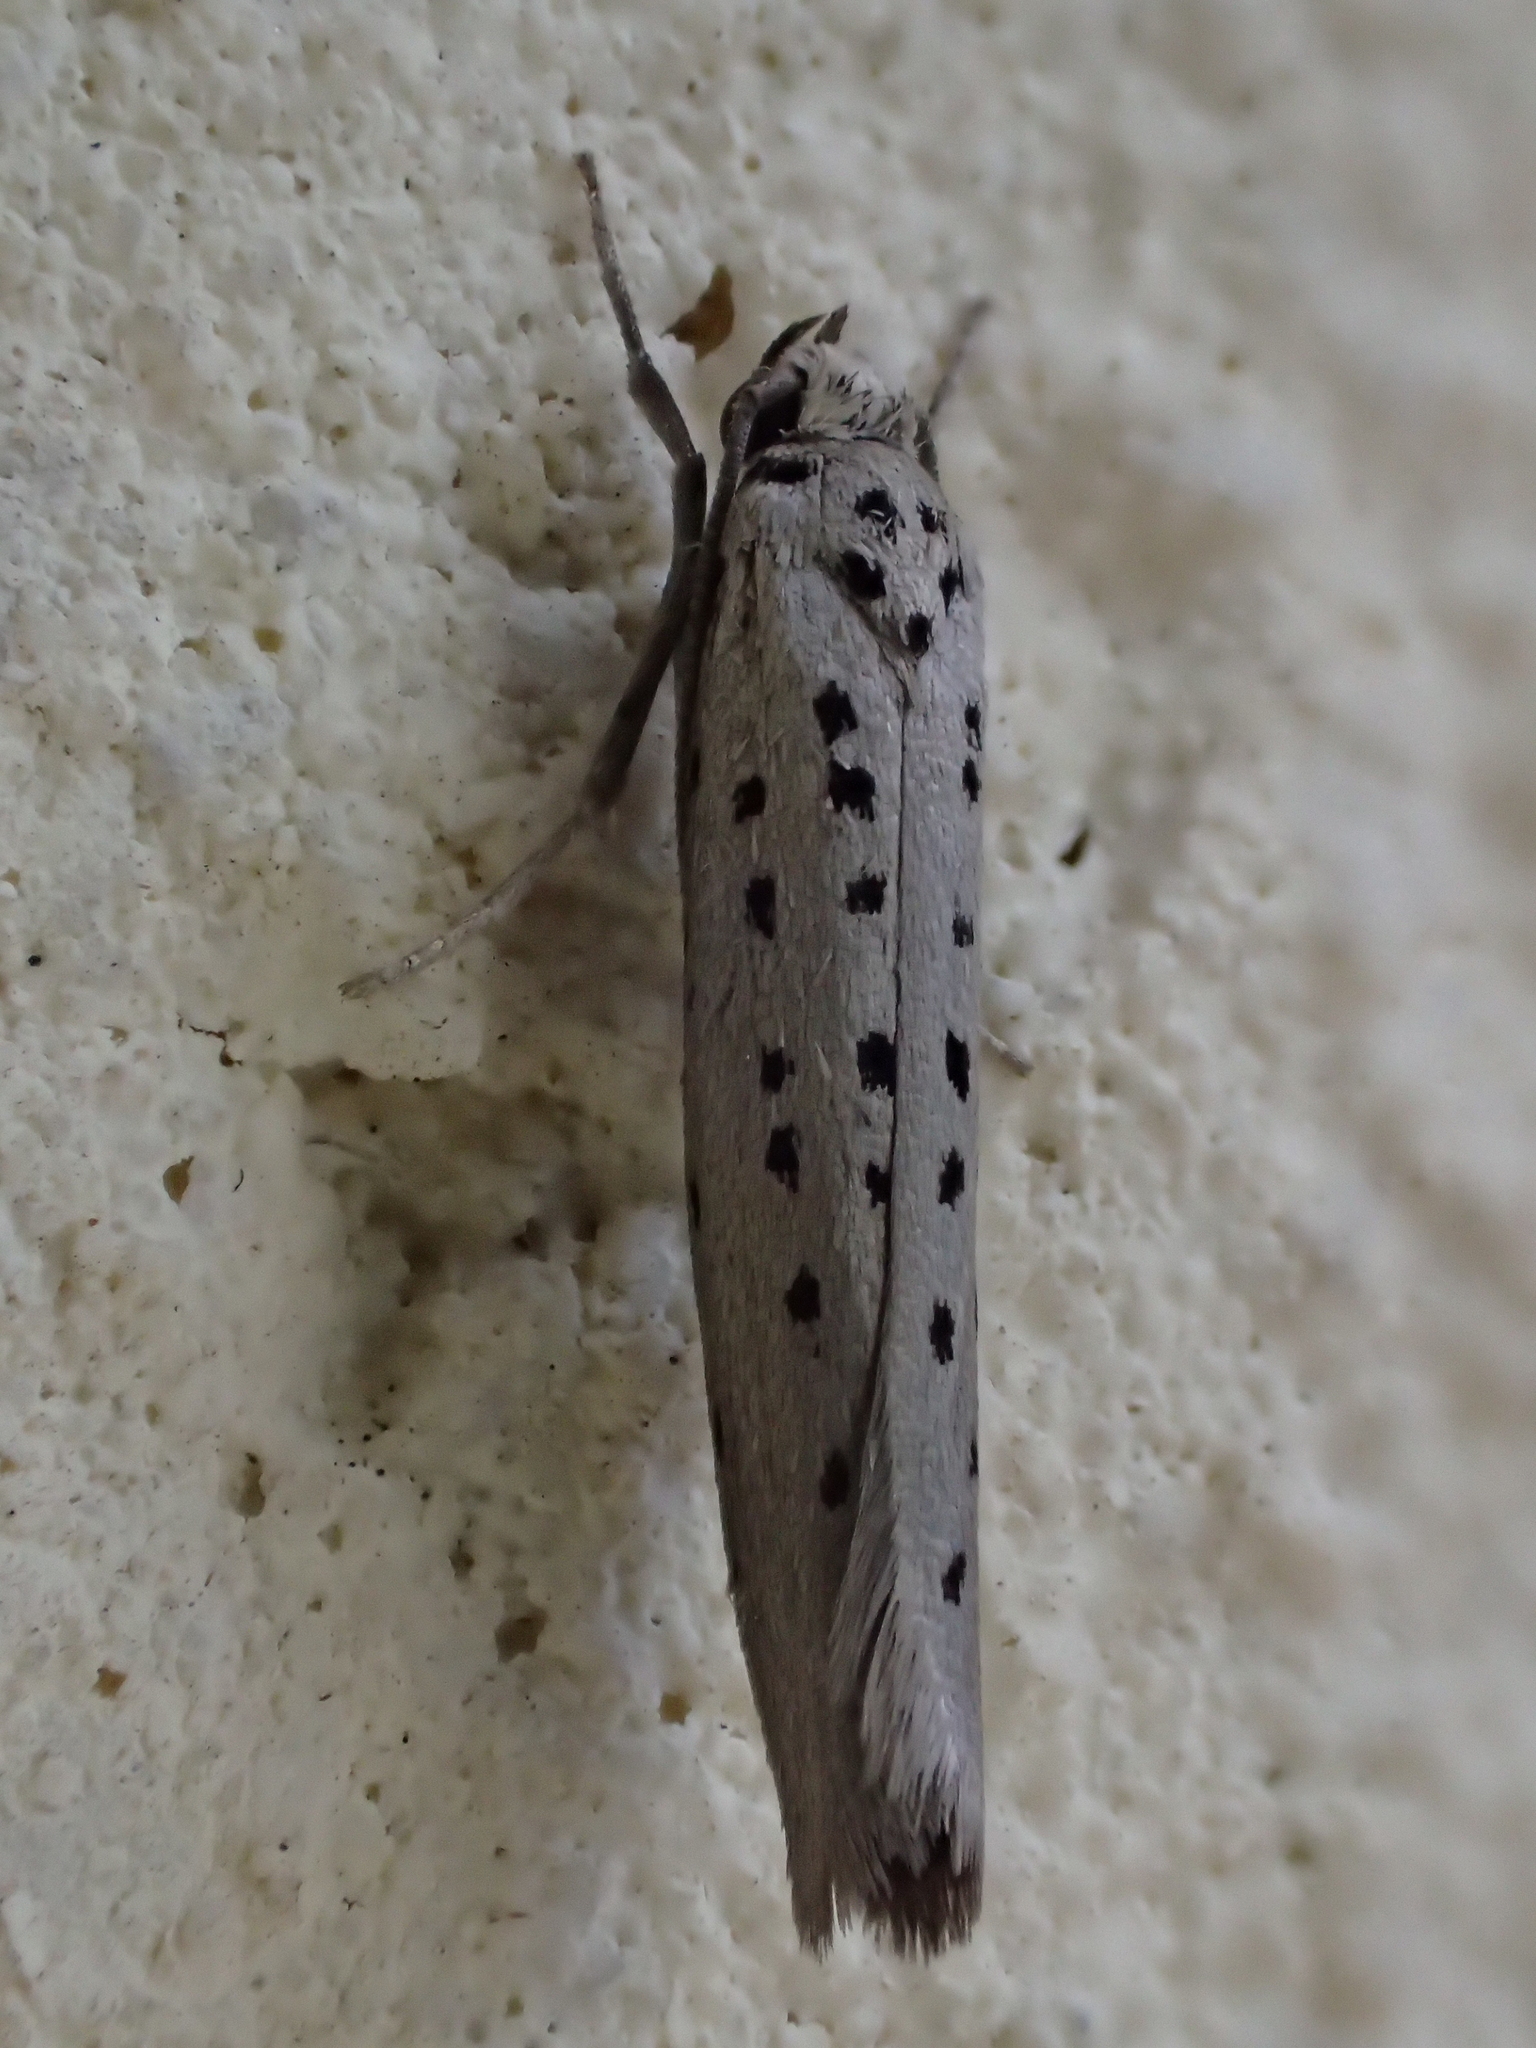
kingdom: Animalia
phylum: Arthropoda
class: Insecta
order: Lepidoptera
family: Yponomeutidae
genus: Yponomeuta
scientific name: Yponomeuta vigintipunctata
